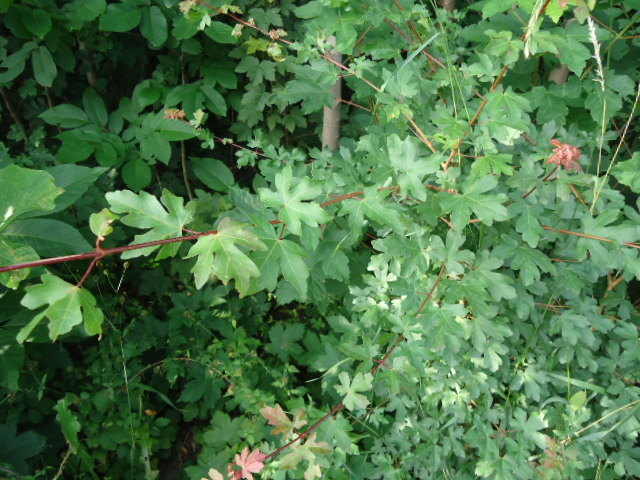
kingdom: Plantae
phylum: Tracheophyta
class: Magnoliopsida
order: Sapindales
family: Sapindaceae
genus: Acer
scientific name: Acer campestre
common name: Field maple
